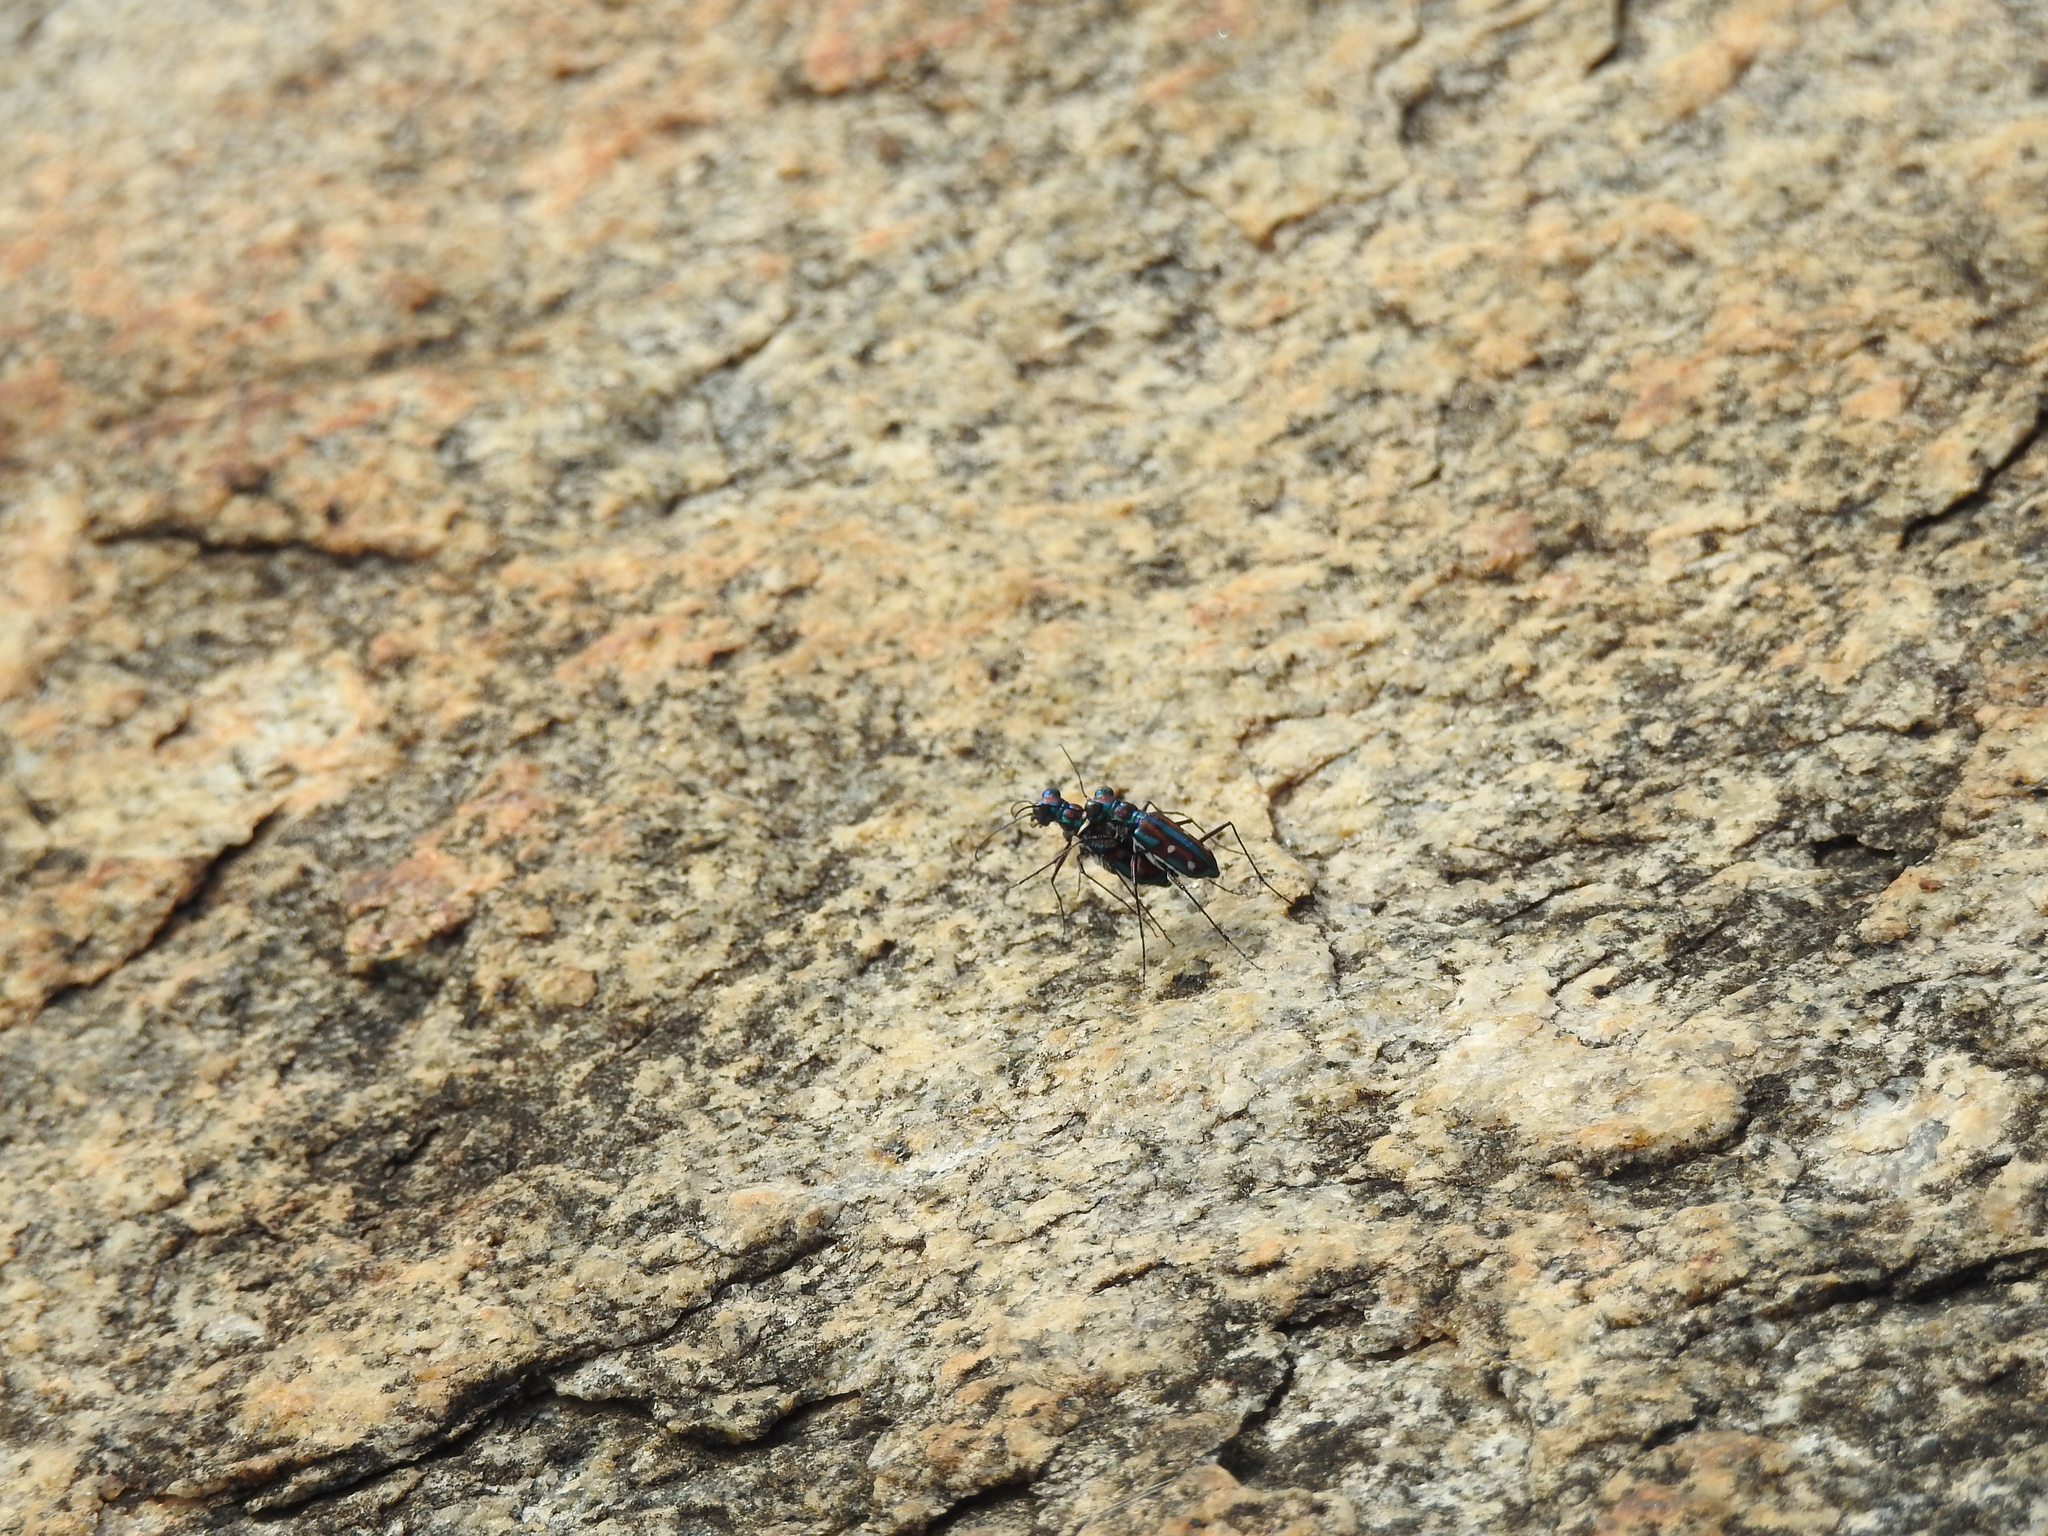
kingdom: Animalia
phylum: Arthropoda
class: Insecta
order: Coleoptera
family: Carabidae
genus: Jansenia
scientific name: Jansenia rugosiceps
